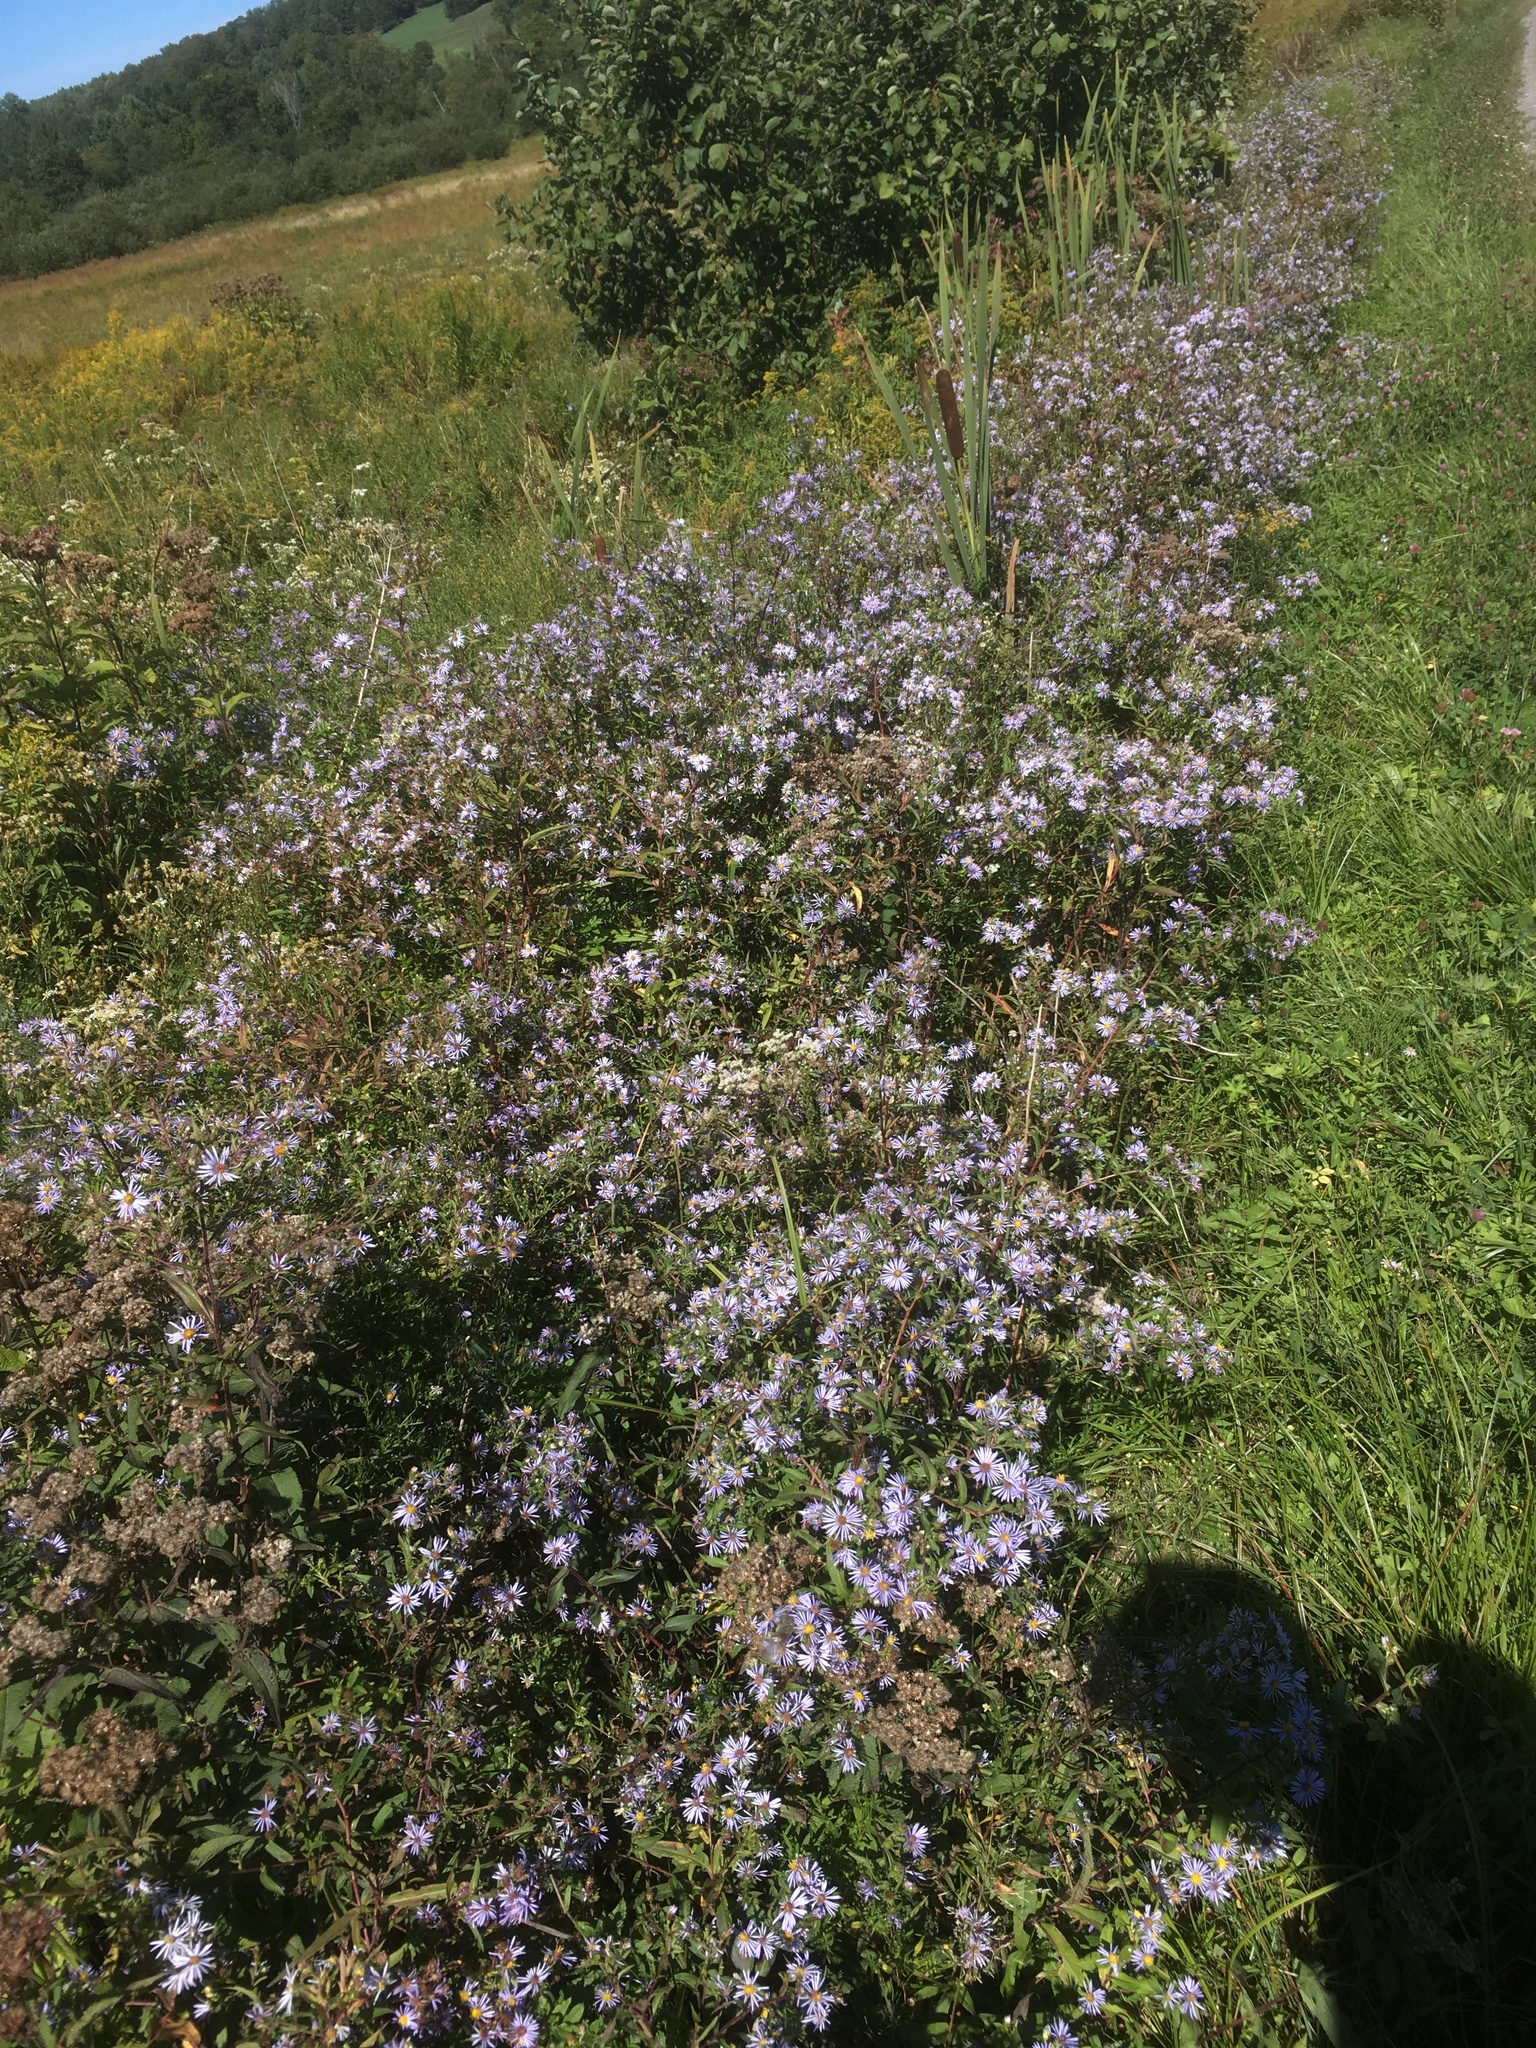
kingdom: Plantae
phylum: Tracheophyta
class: Magnoliopsida
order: Asterales
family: Asteraceae
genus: Symphyotrichum
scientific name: Symphyotrichum puniceum
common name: Bog aster
